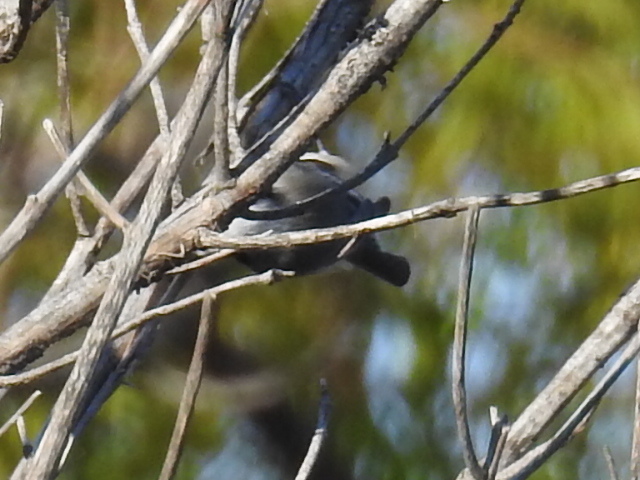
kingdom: Animalia
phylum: Chordata
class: Aves
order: Passeriformes
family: Paridae
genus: Poecile
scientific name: Poecile carolinensis
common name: Carolina chickadee
